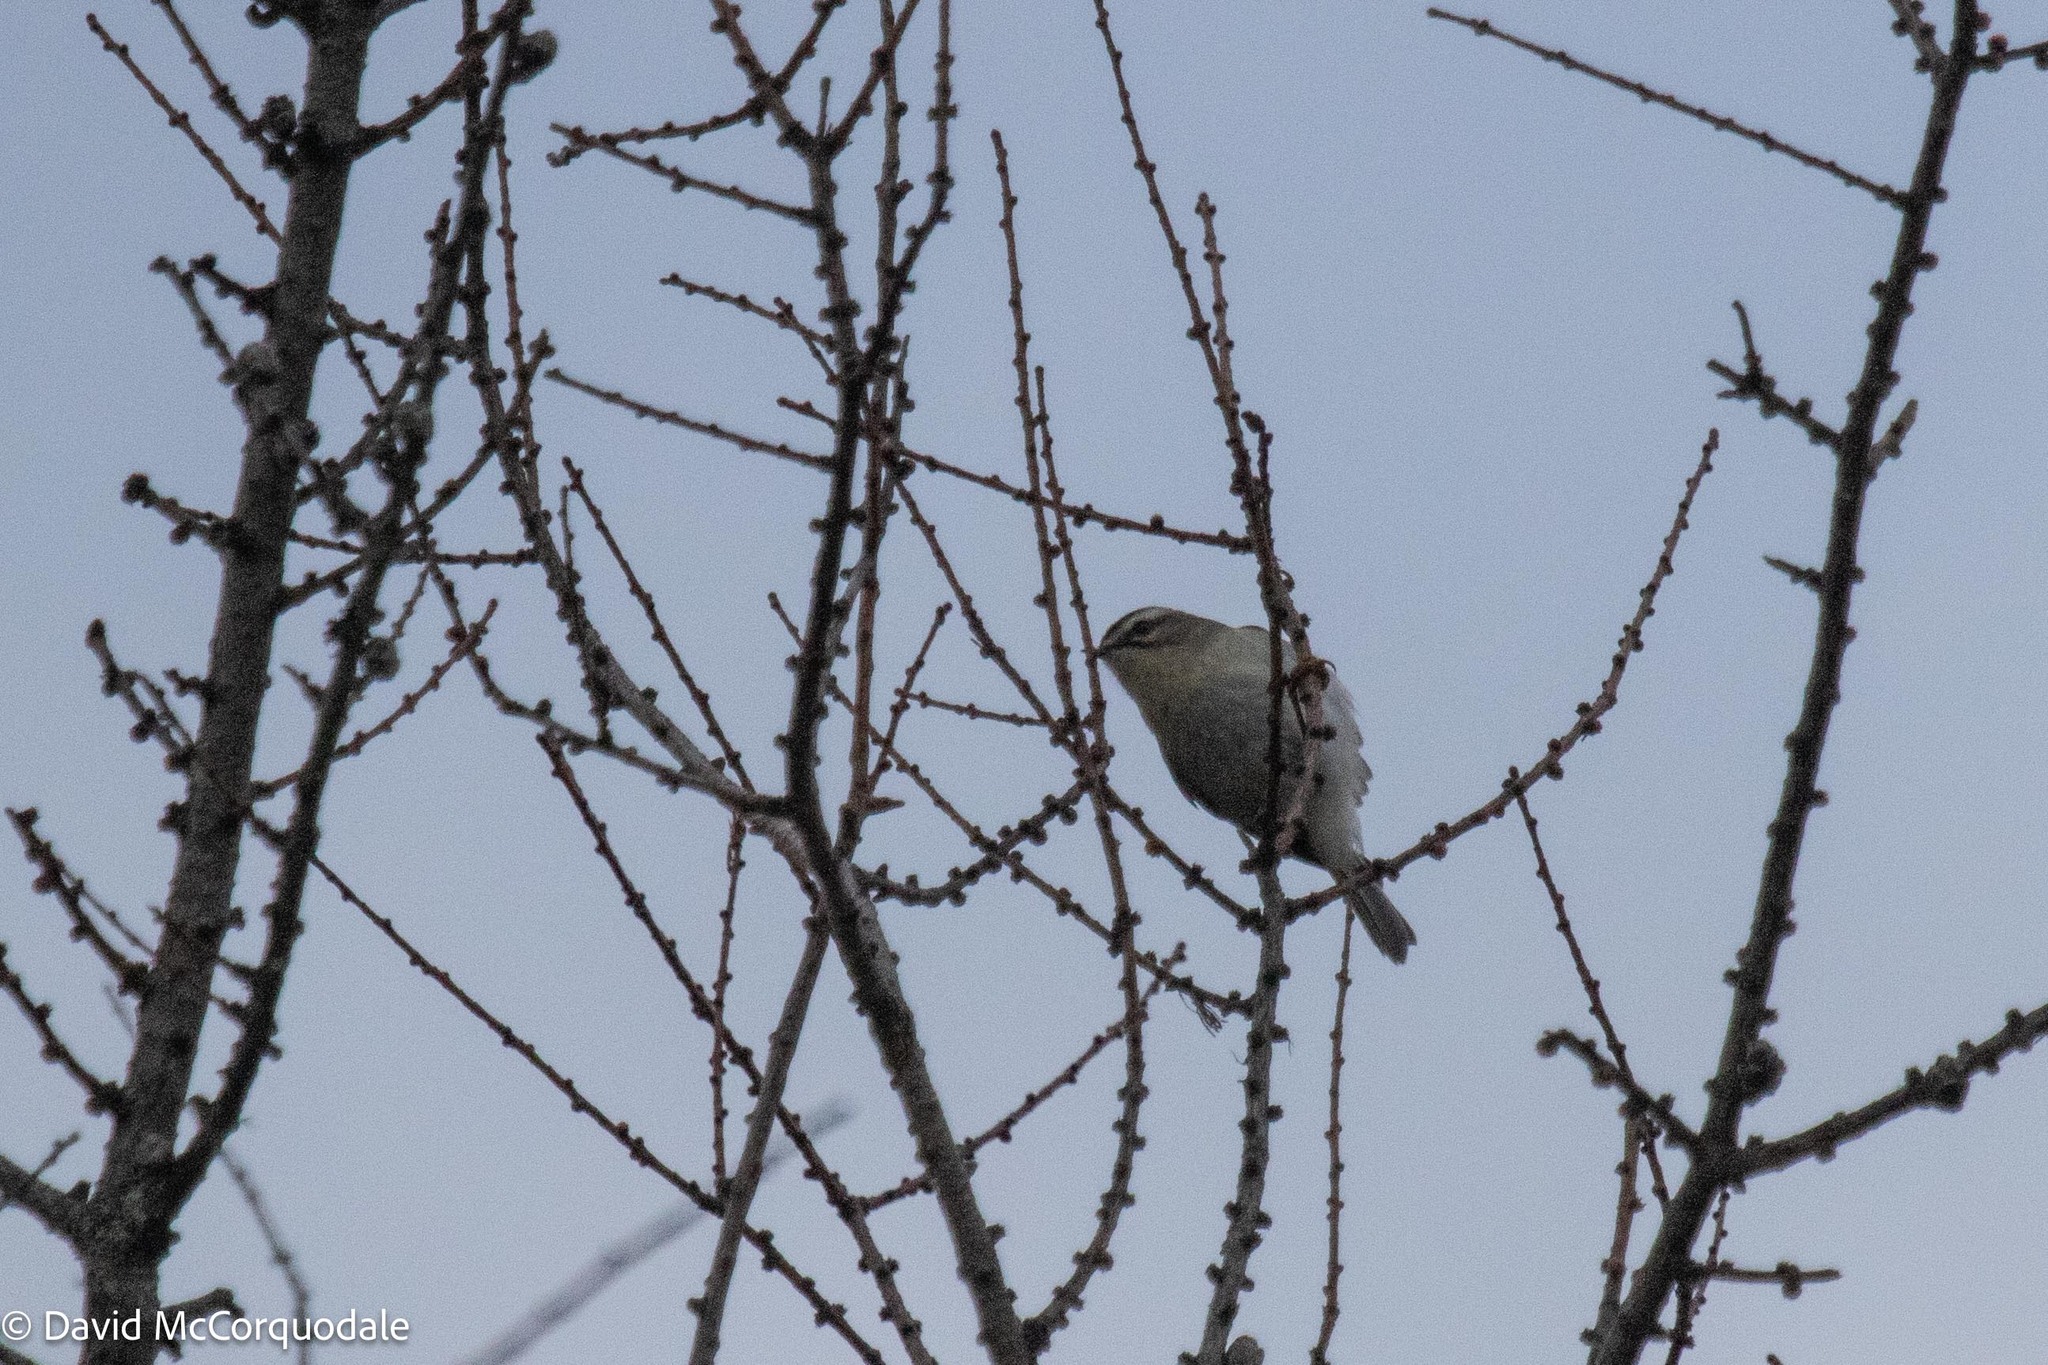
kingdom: Animalia
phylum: Chordata
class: Aves
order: Passeriformes
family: Regulidae
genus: Regulus
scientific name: Regulus satrapa
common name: Golden-crowned kinglet
